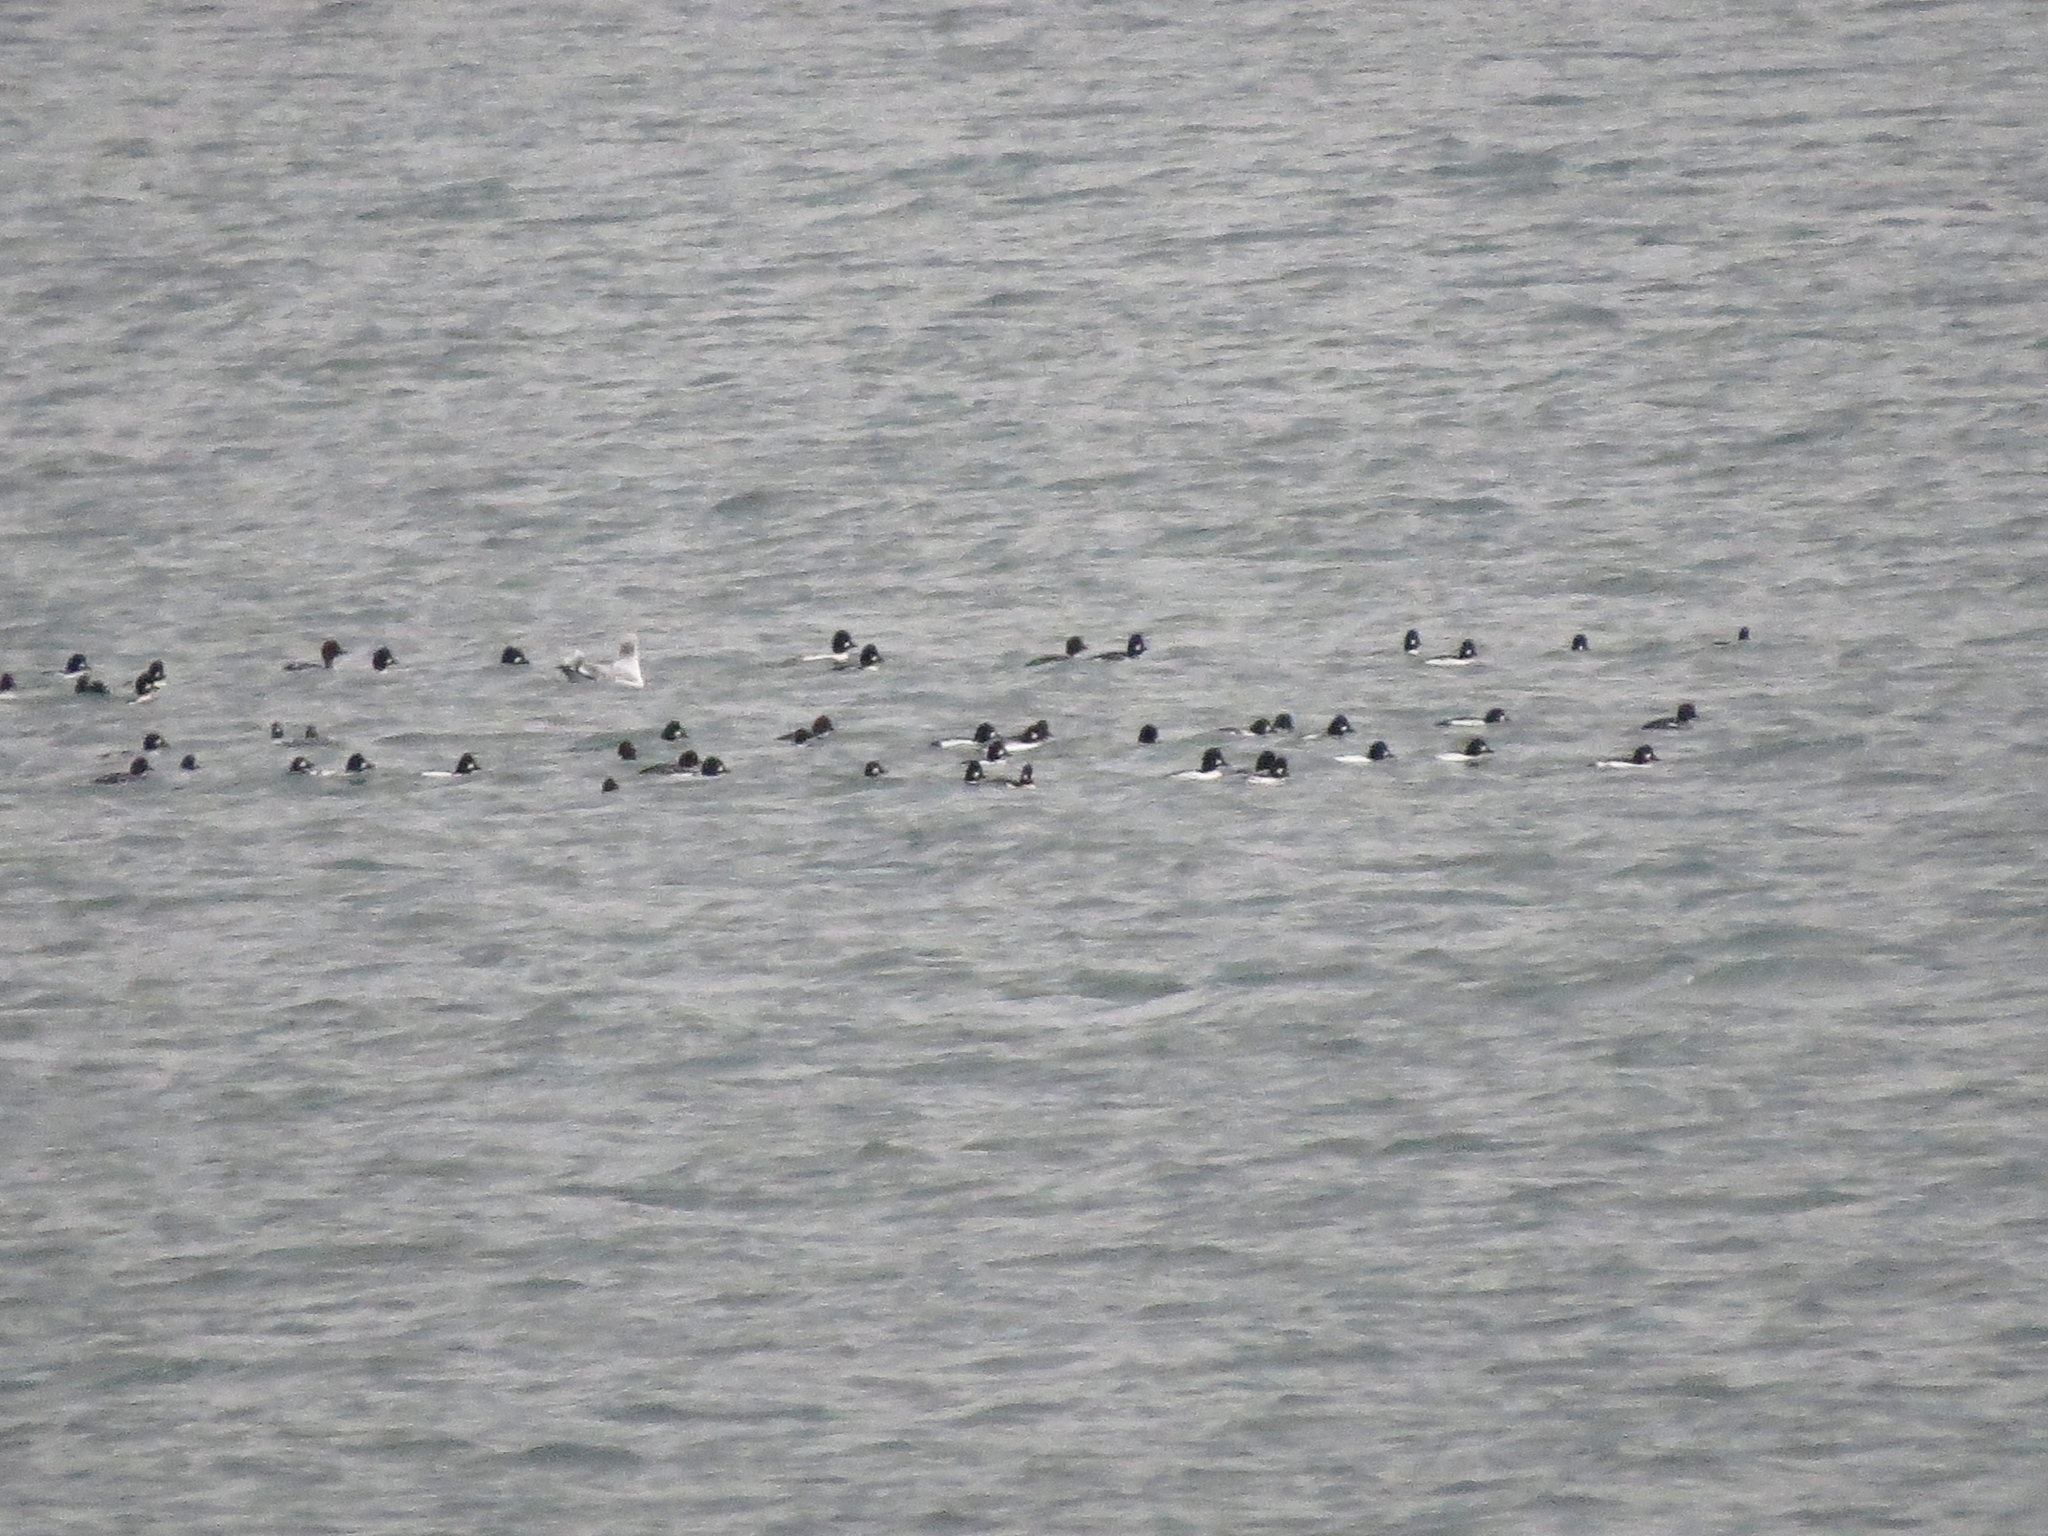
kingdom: Animalia
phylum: Chordata
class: Aves
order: Anseriformes
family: Anatidae
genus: Bucephala
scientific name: Bucephala clangula
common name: Common goldeneye
